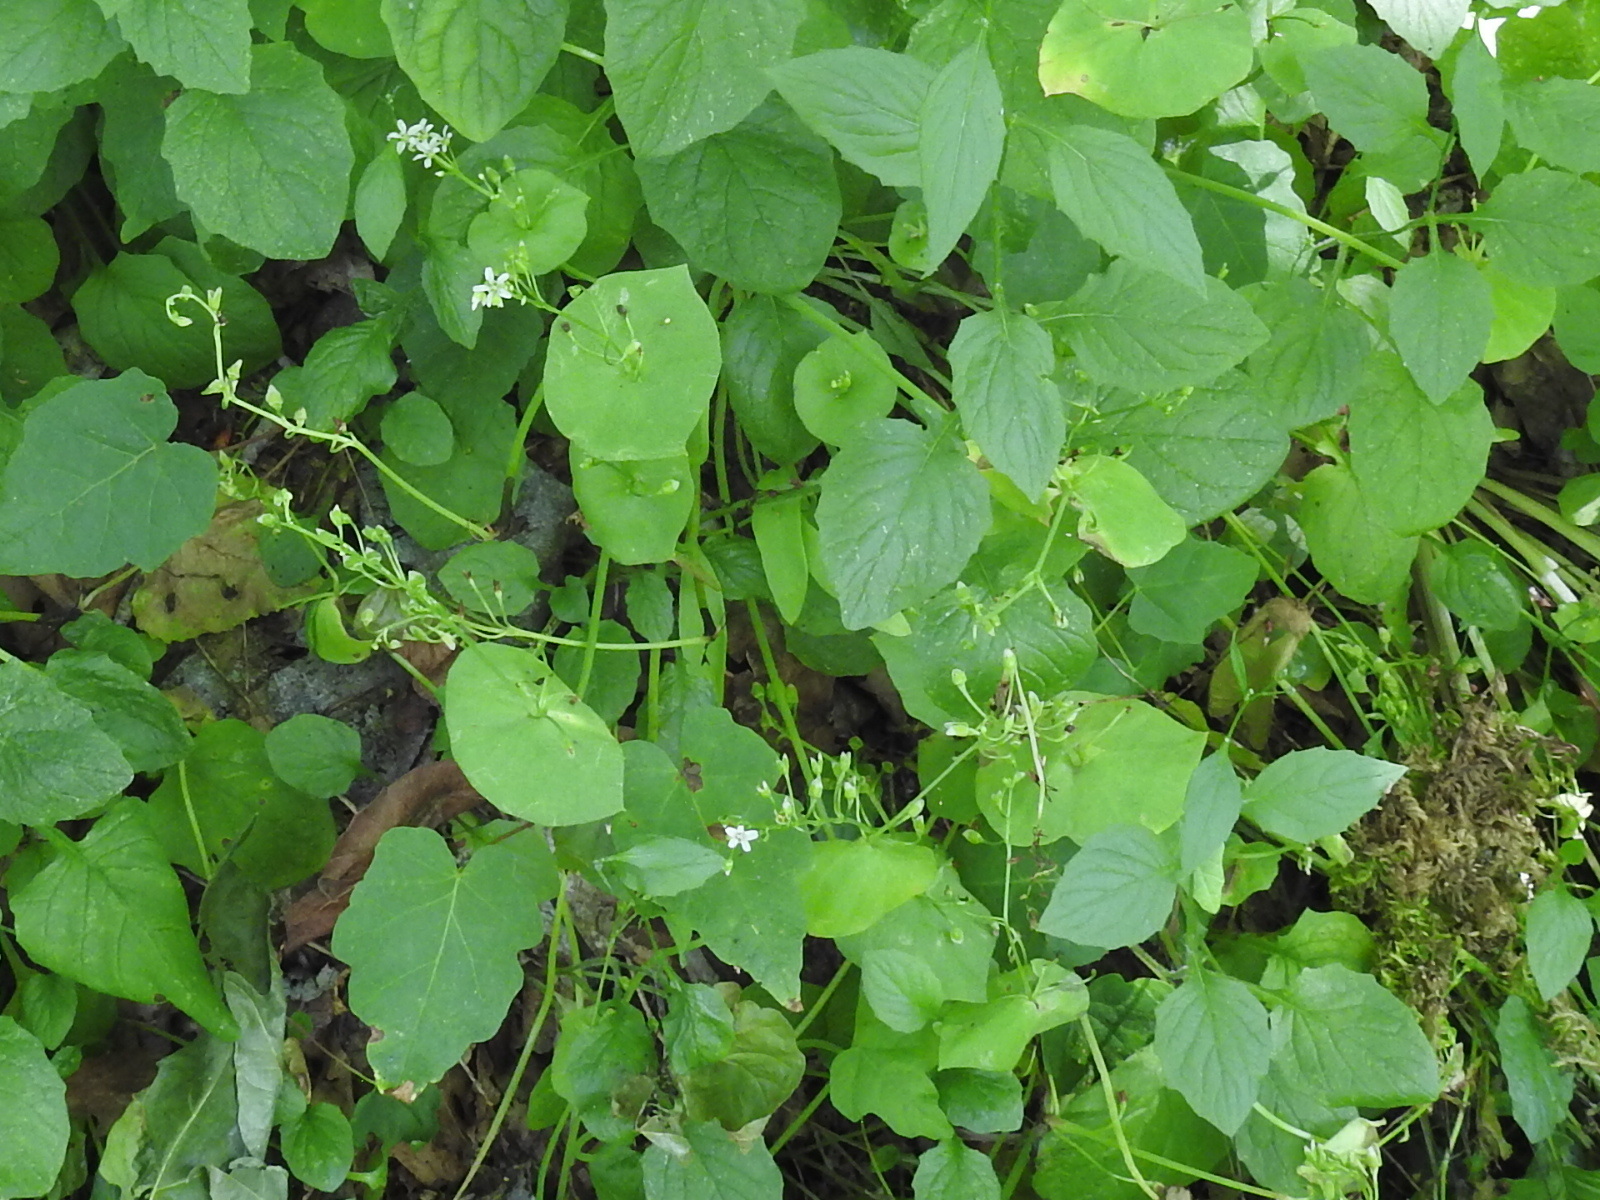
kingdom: Plantae
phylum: Tracheophyta
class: Magnoliopsida
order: Caryophyllales
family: Montiaceae
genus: Claytonia
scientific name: Claytonia perfoliata
